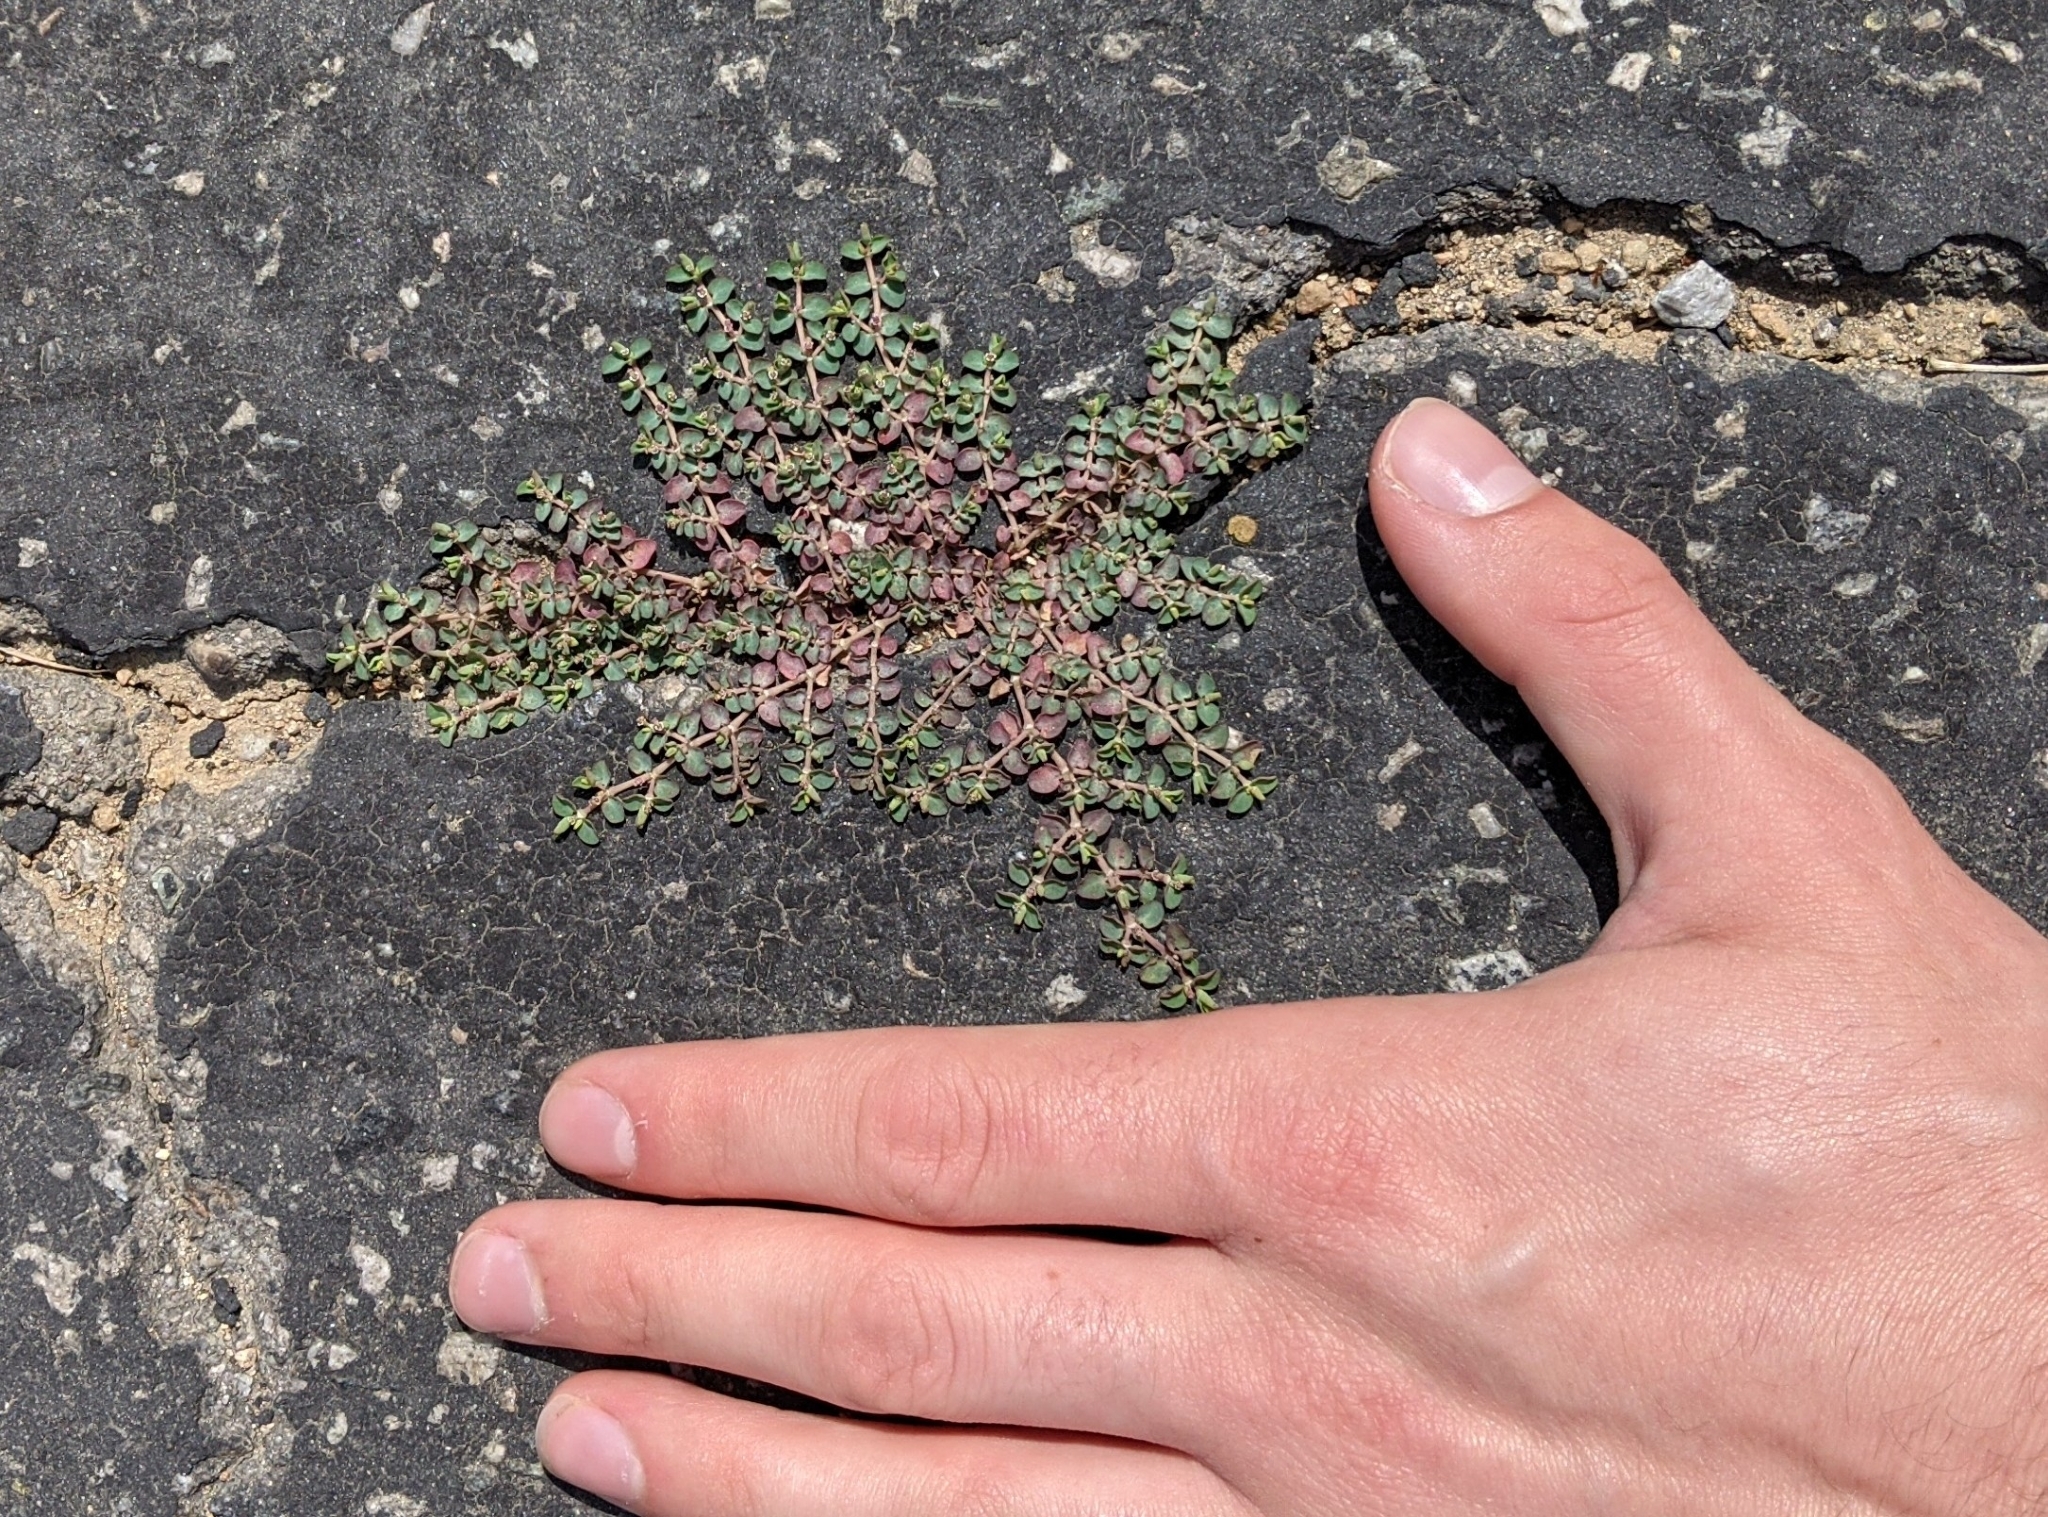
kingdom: Plantae
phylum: Tracheophyta
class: Magnoliopsida
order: Malpighiales
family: Euphorbiaceae
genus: Euphorbia
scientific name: Euphorbia serpens
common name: Matted sandmat
